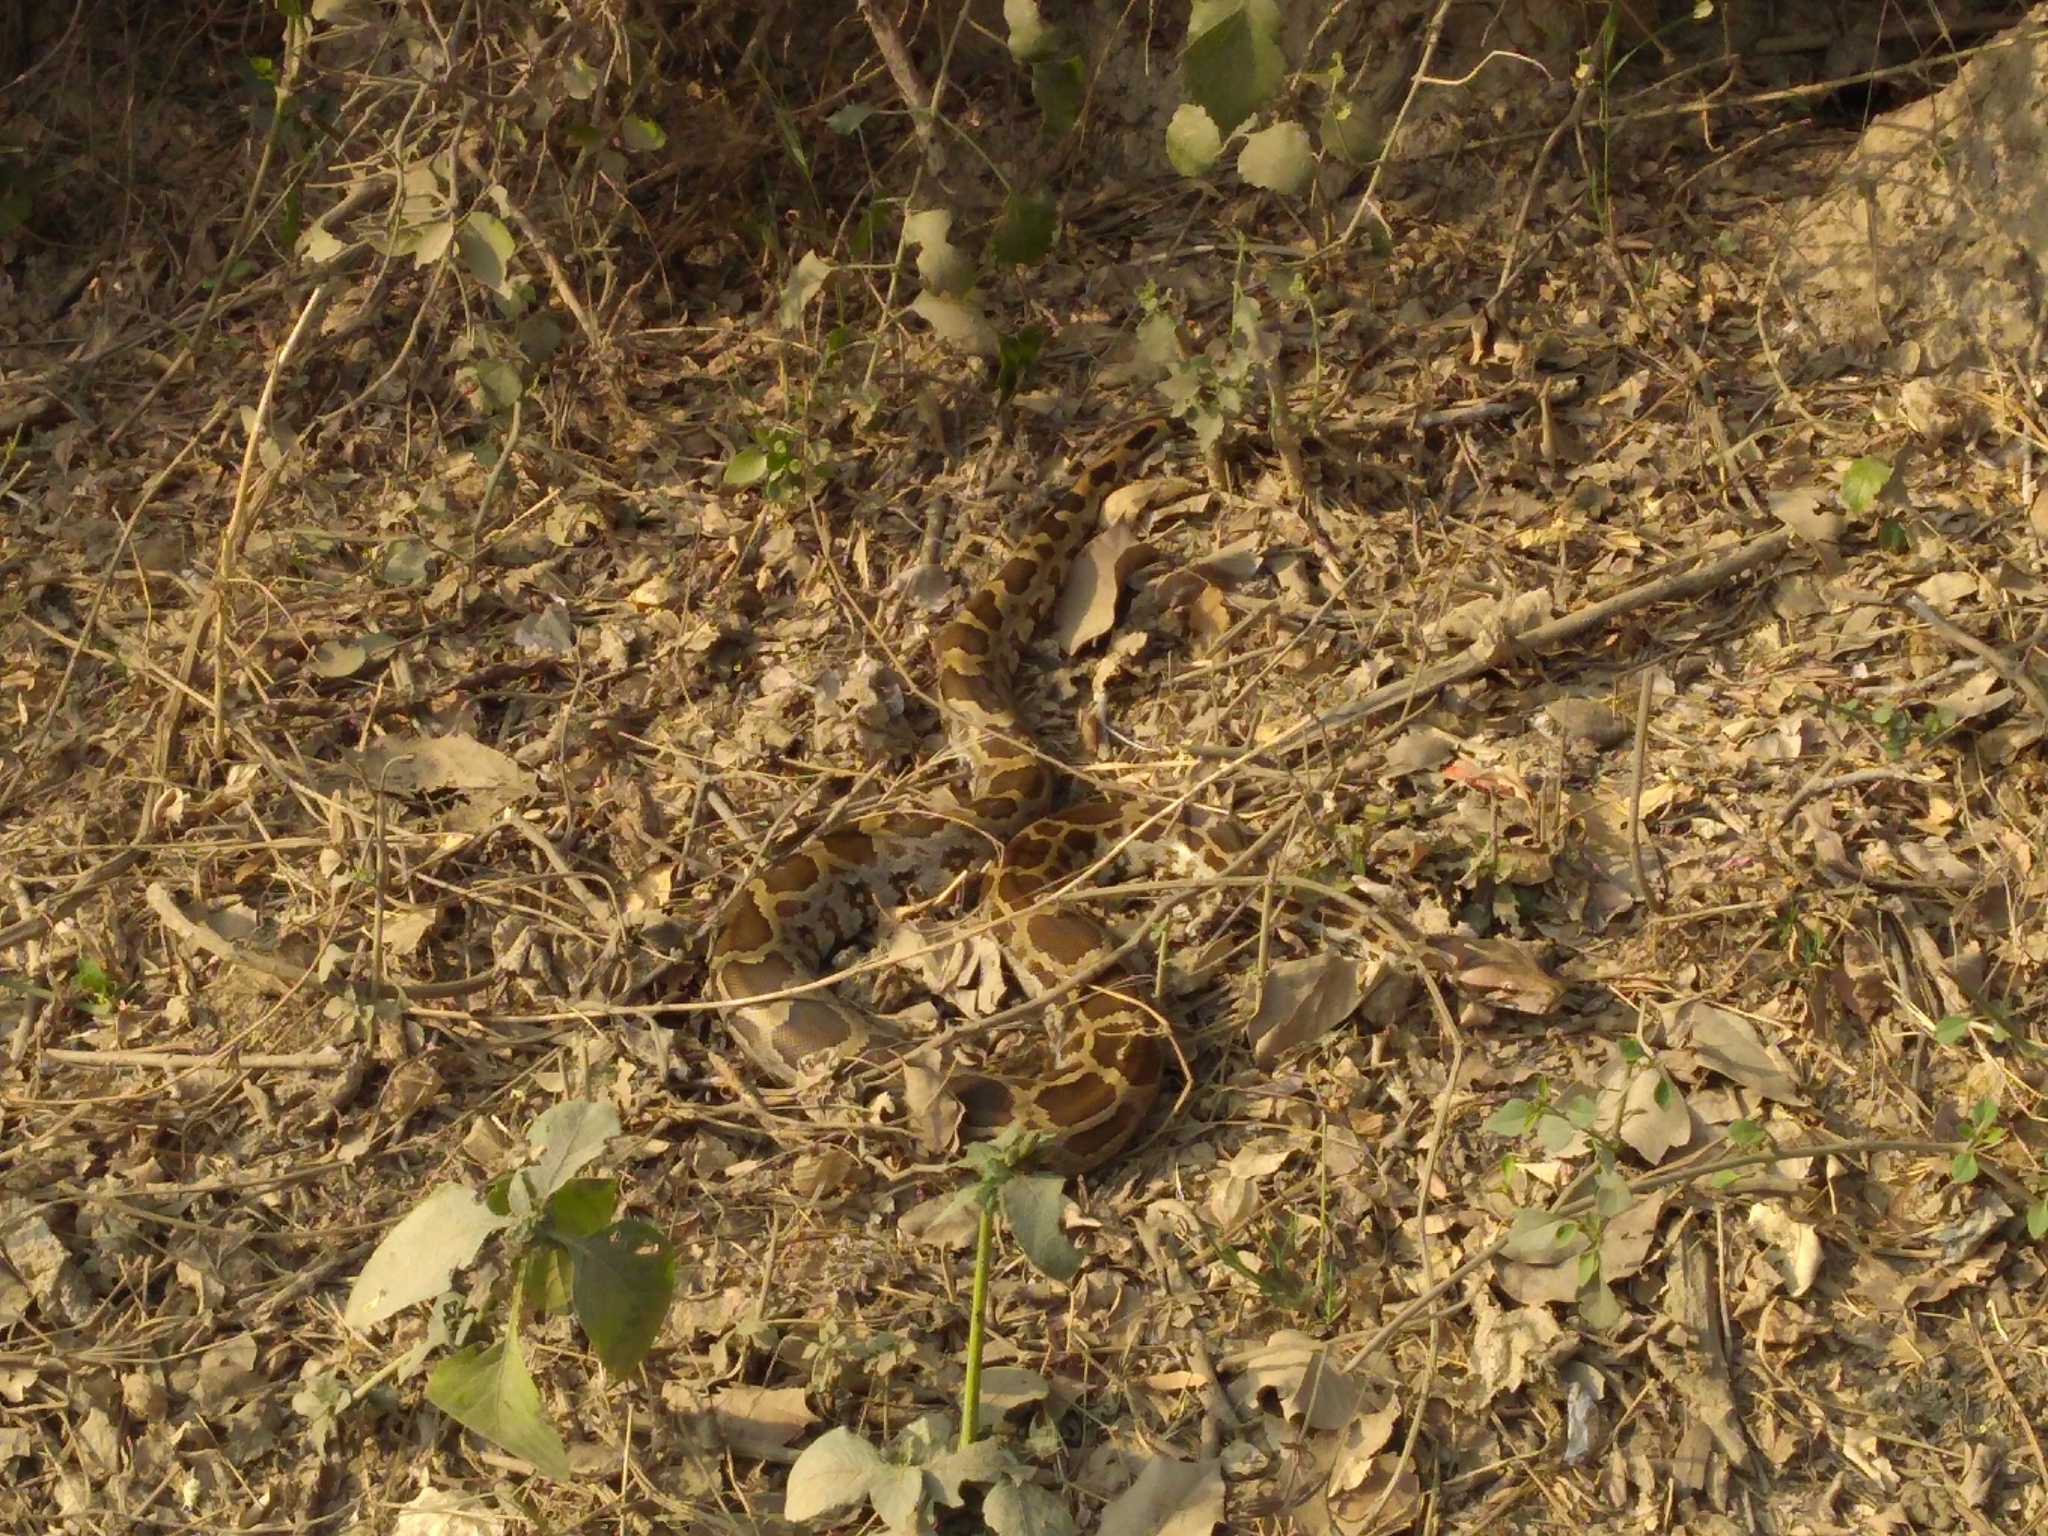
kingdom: Animalia
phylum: Chordata
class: Squamata
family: Pythonidae
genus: Python
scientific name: Python molurus
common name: Indian rock python
